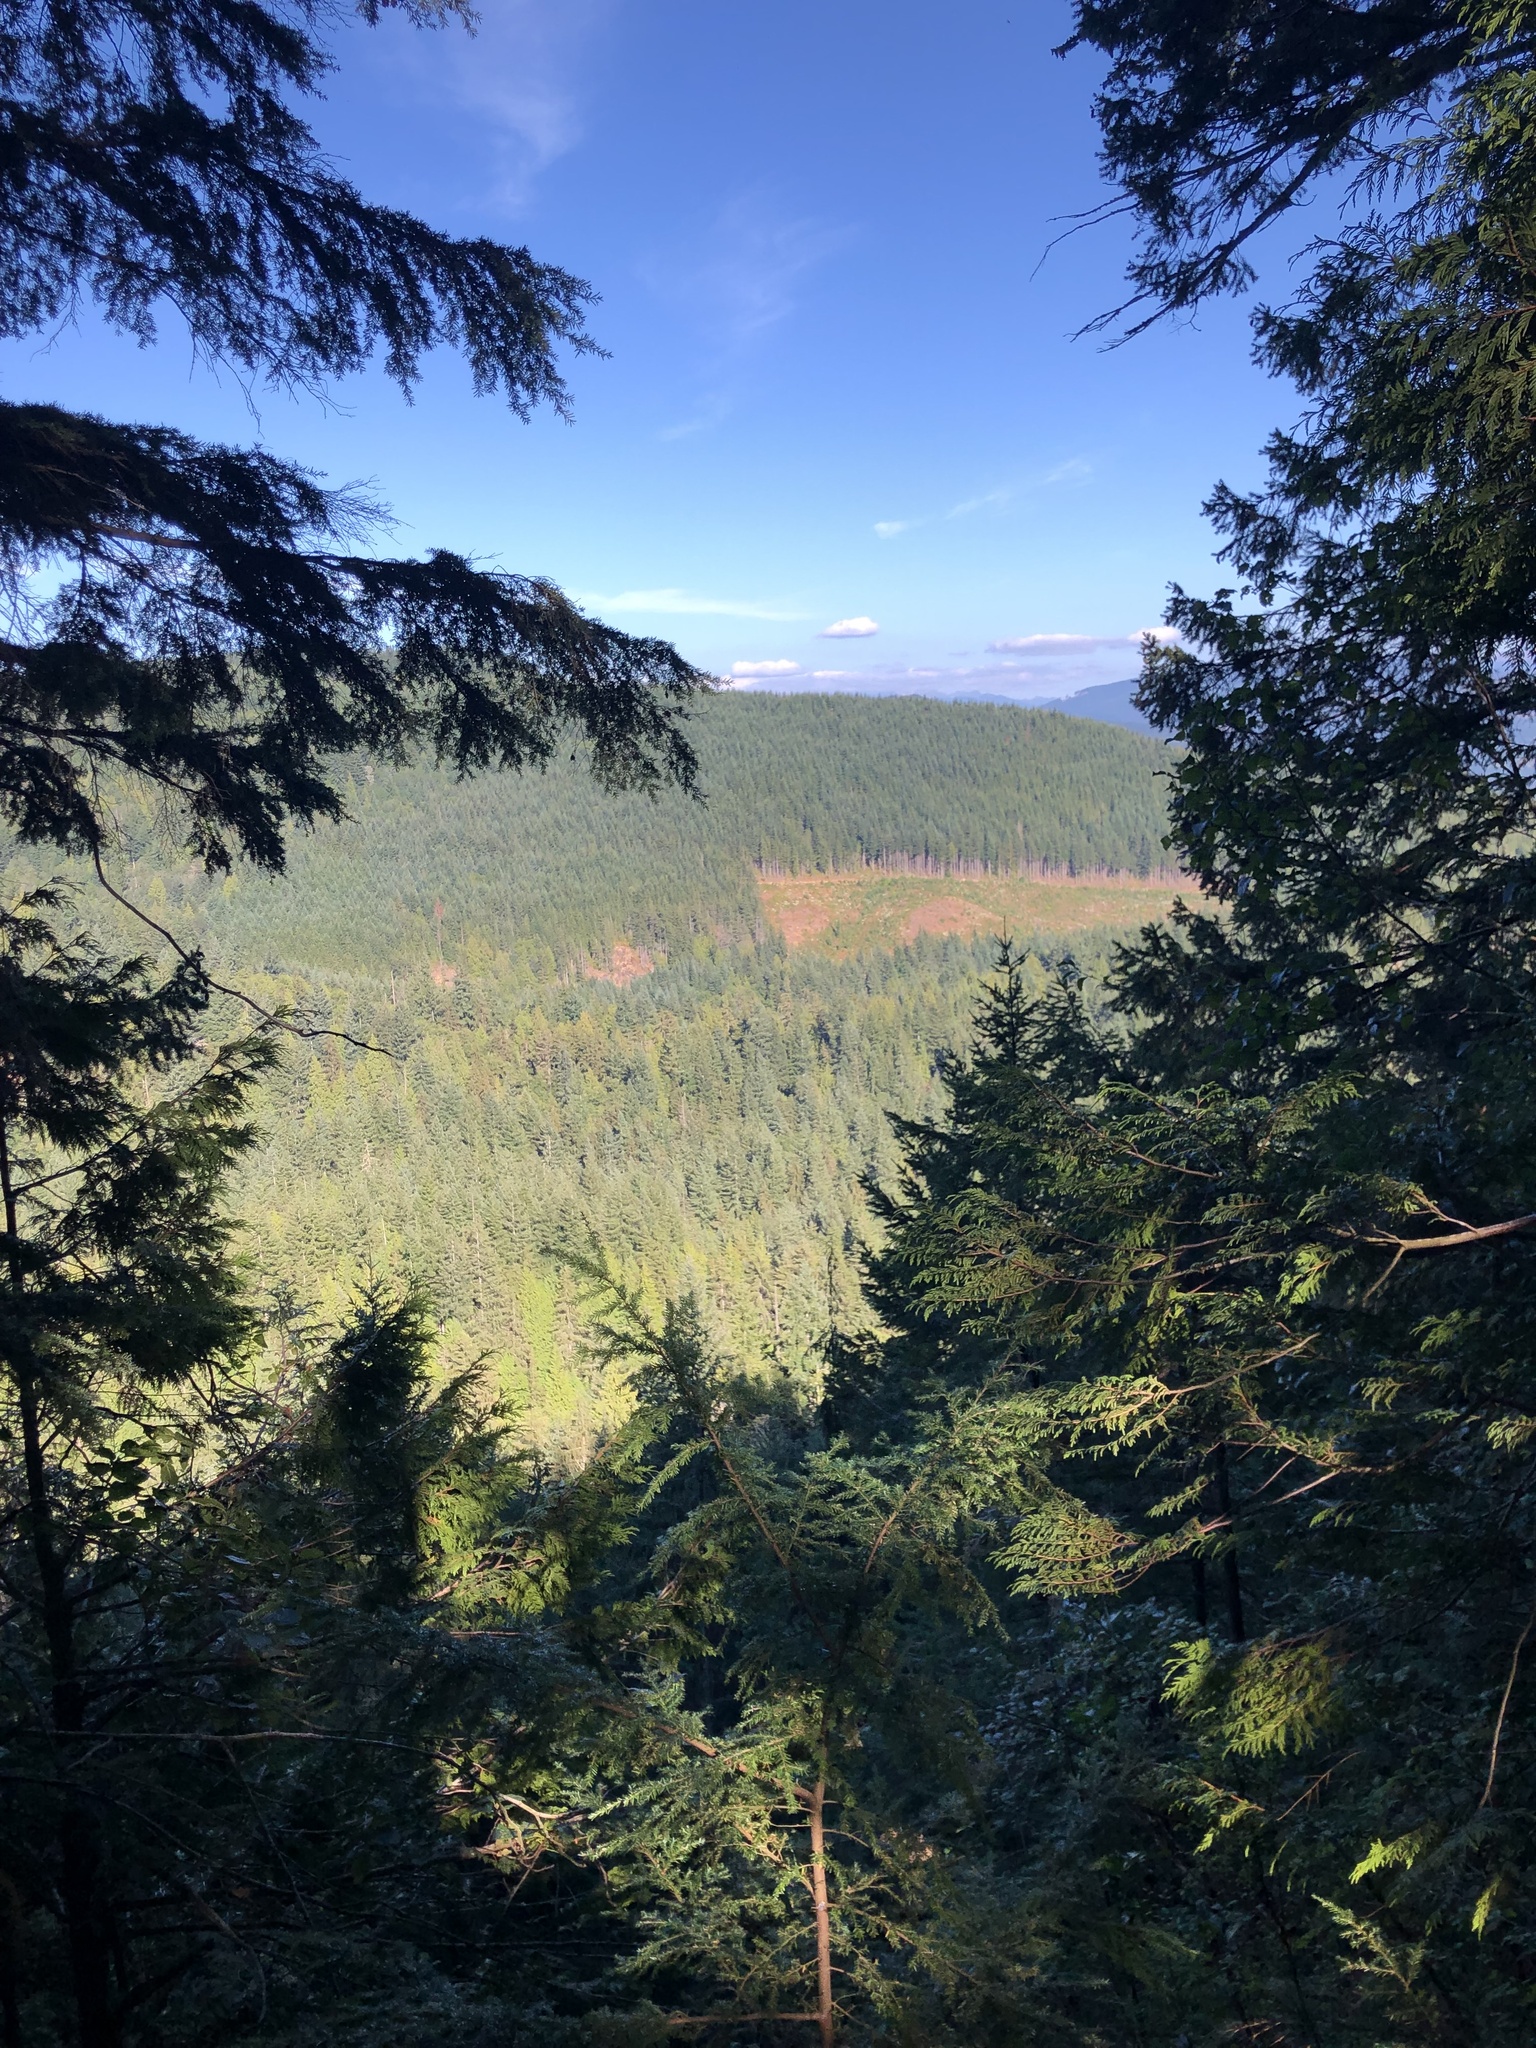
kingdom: Plantae
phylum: Tracheophyta
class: Pinopsida
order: Pinales
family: Pinaceae
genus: Tsuga
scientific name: Tsuga heterophylla
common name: Western hemlock
